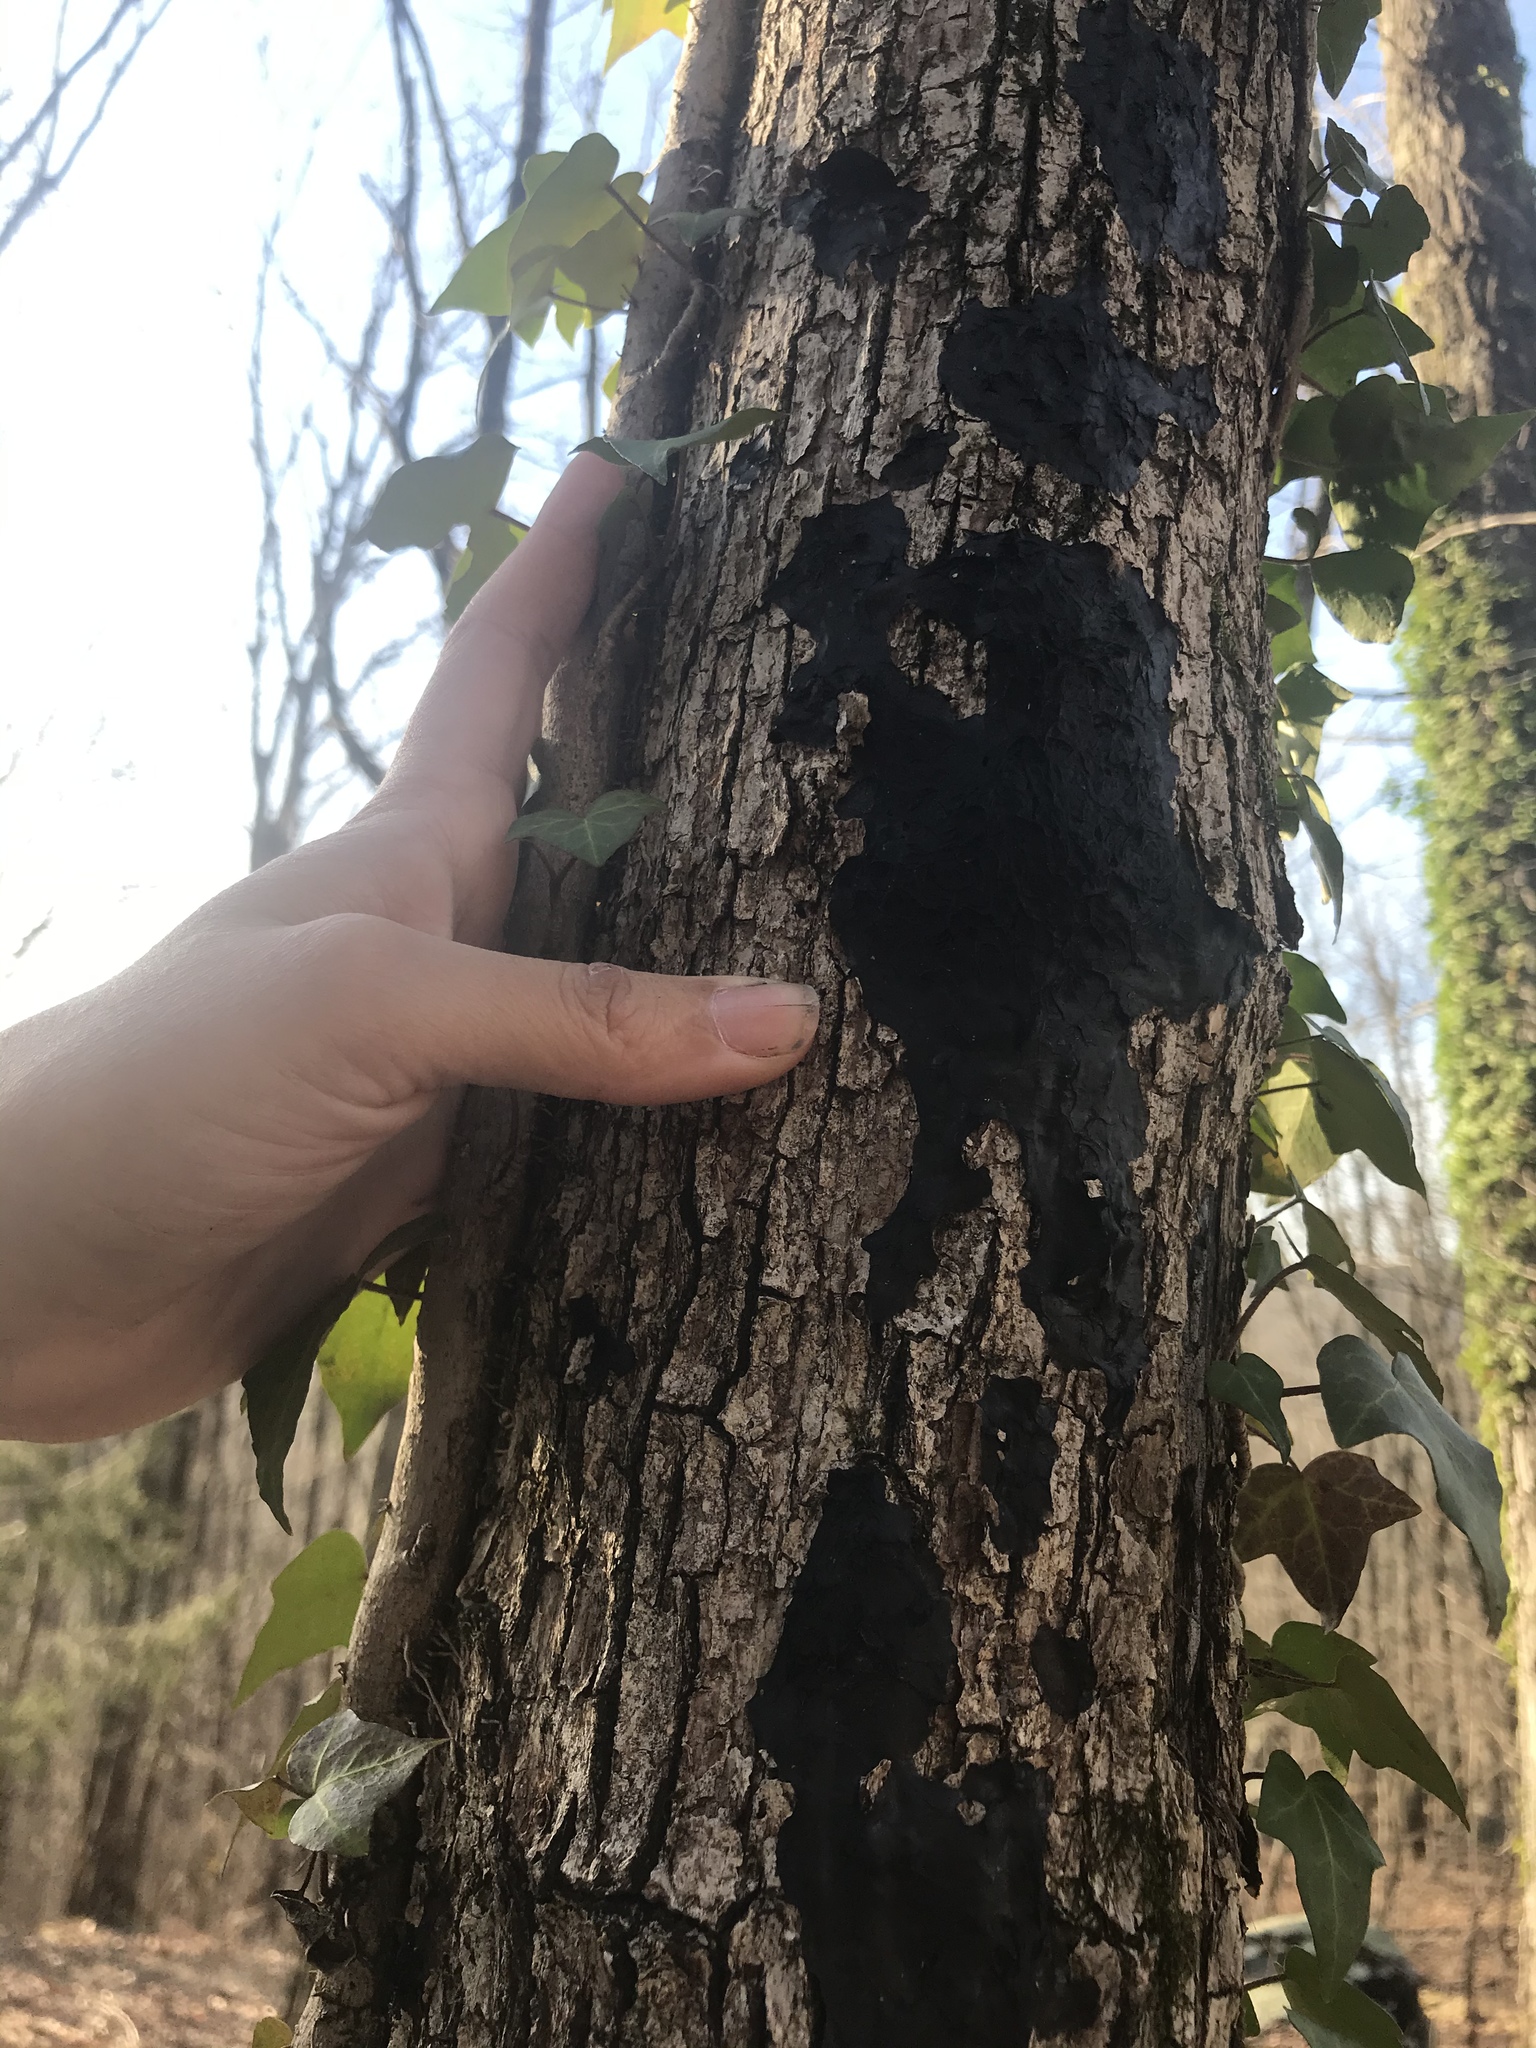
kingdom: Fungi
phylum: Basidiomycota
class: Agaricomycetes
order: Auriculariales
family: Auriculariaceae
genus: Exidia
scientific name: Exidia glandulosa
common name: Witches' butter
